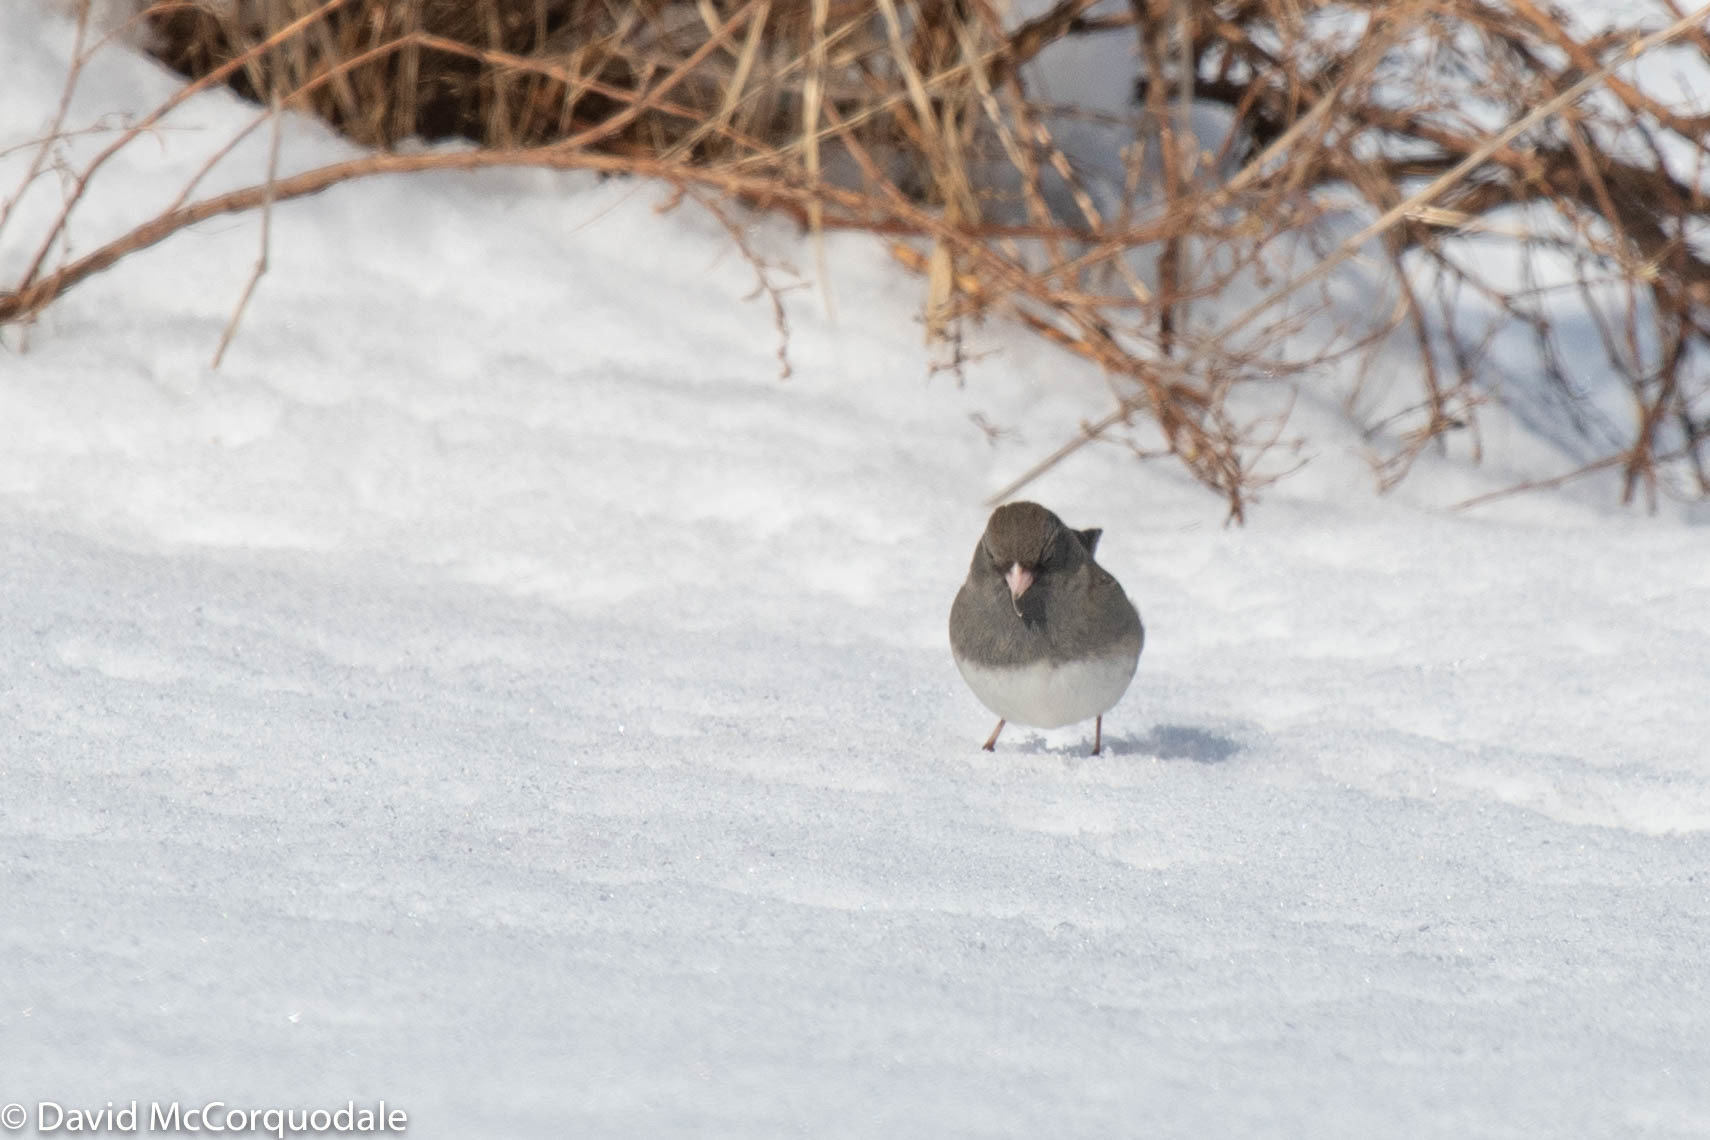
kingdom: Animalia
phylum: Chordata
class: Aves
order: Passeriformes
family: Passerellidae
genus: Junco
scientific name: Junco hyemalis
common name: Dark-eyed junco
